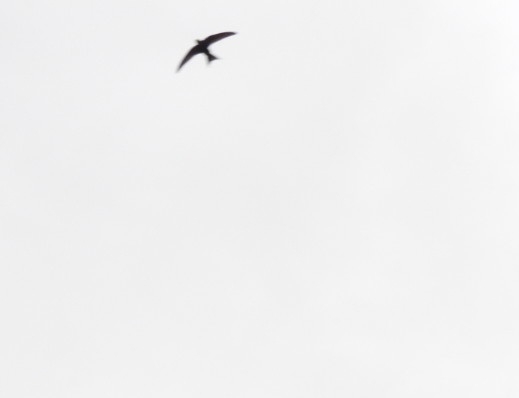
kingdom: Animalia
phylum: Chordata
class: Aves
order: Apodiformes
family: Apodidae
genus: Apus
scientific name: Apus apus
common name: Common swift
